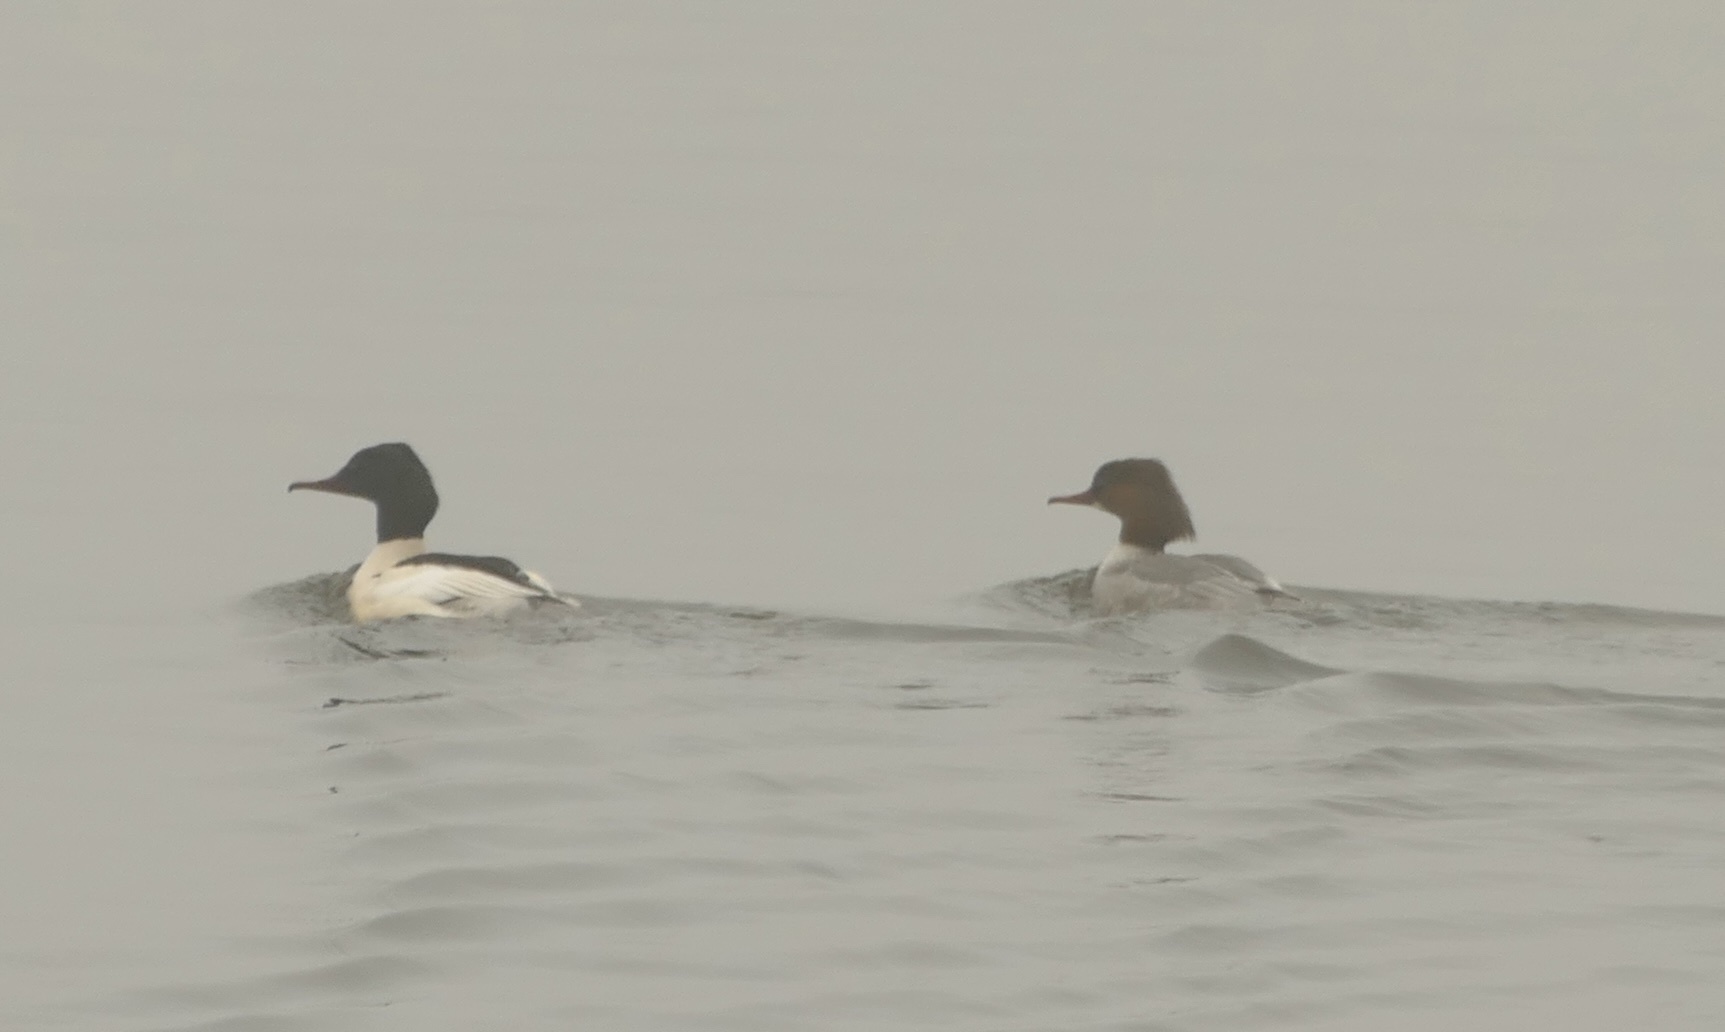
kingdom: Animalia
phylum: Chordata
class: Aves
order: Anseriformes
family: Anatidae
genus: Mergus
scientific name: Mergus merganser
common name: Common merganser
